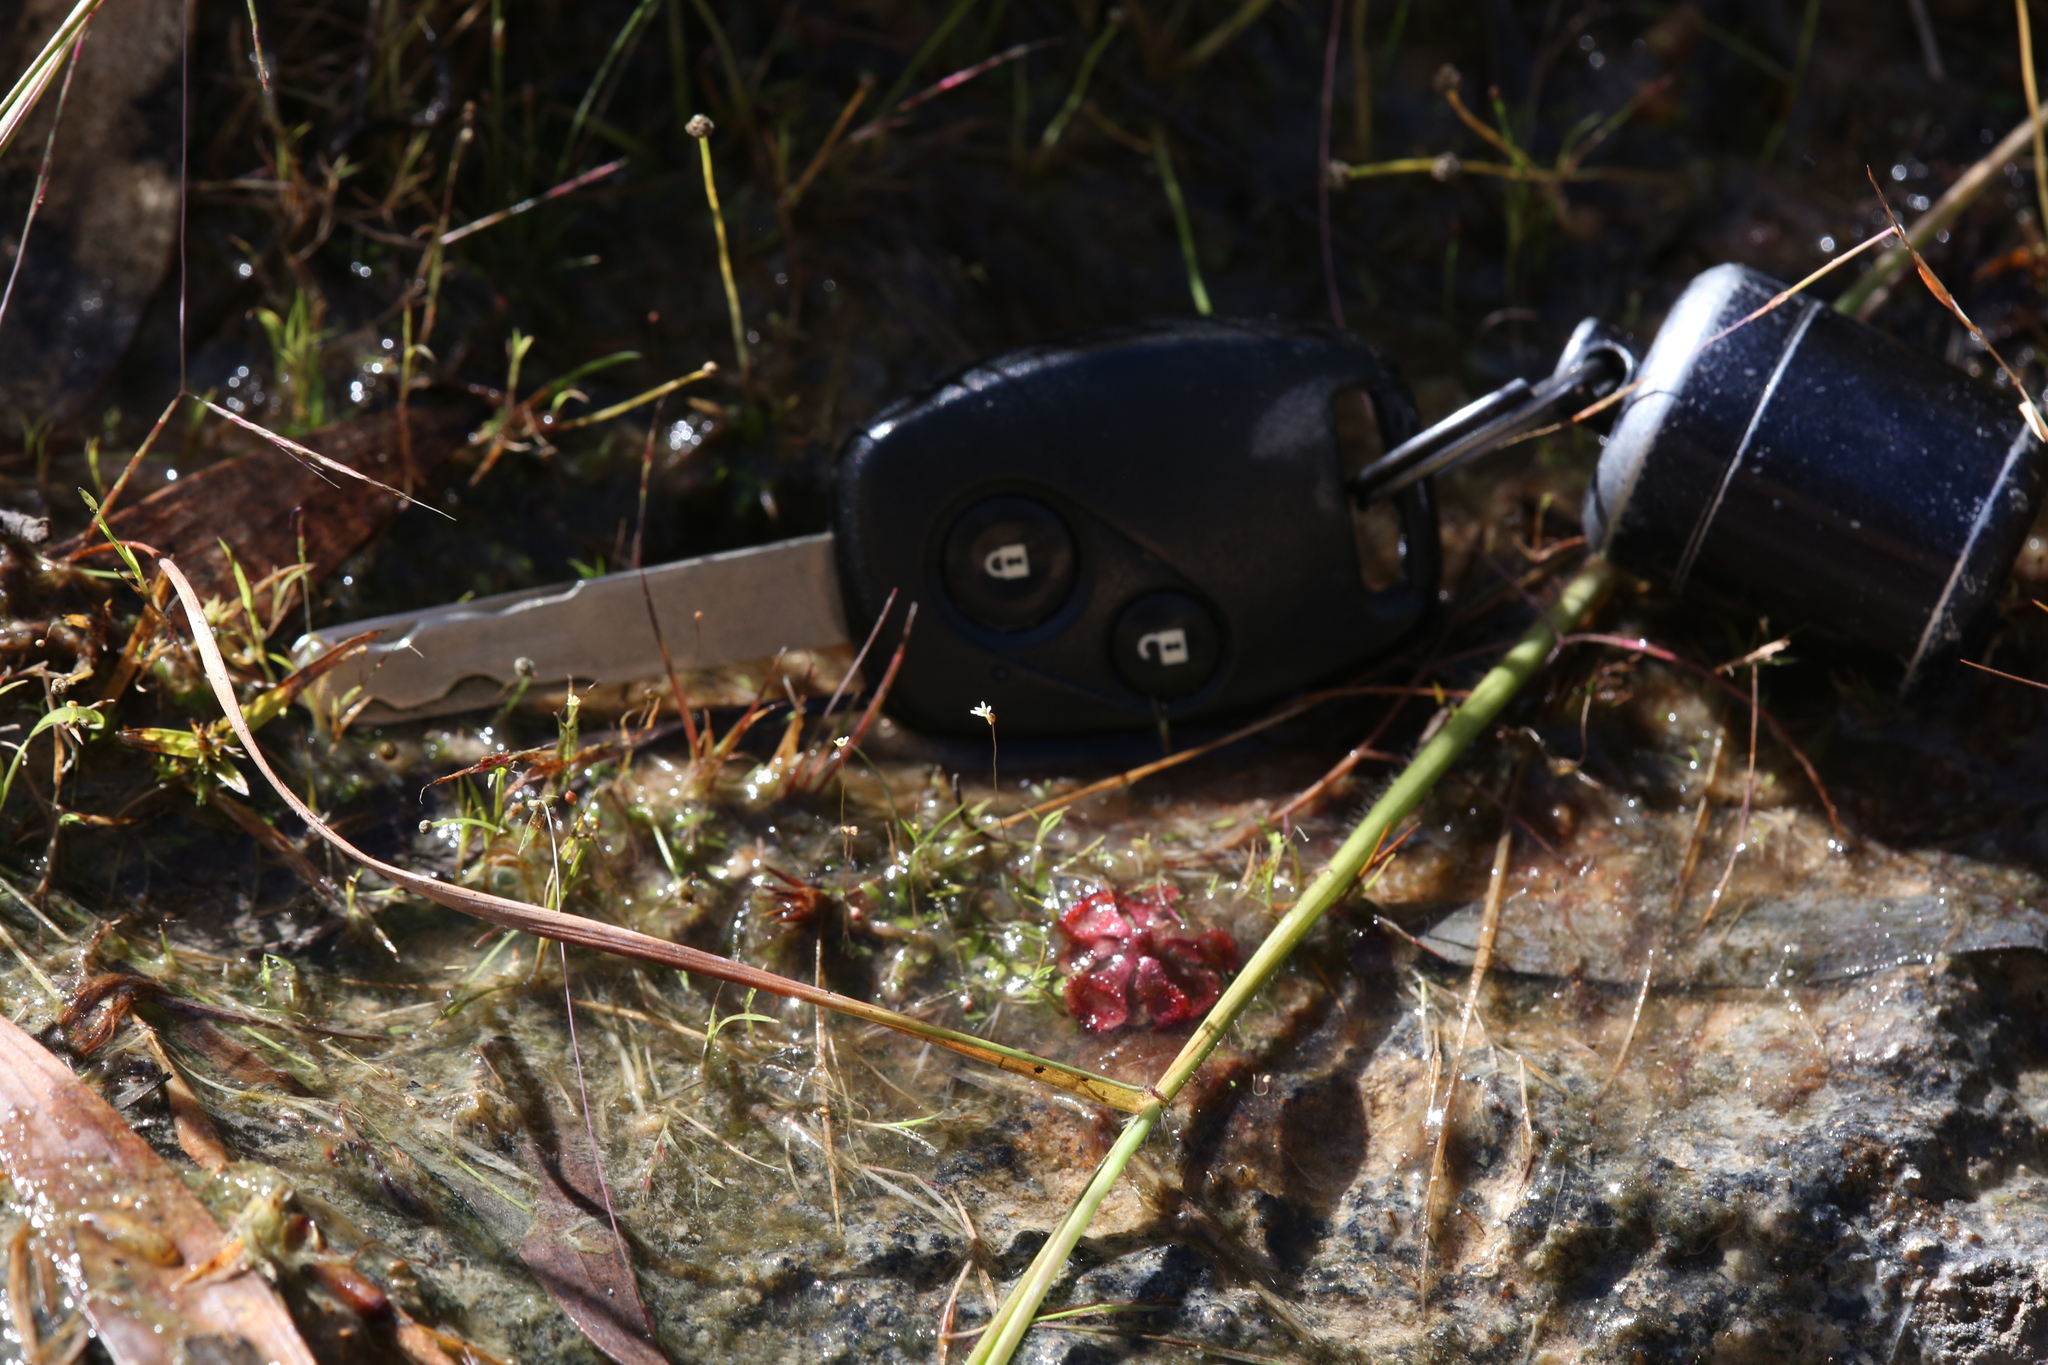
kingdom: Plantae
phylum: Tracheophyta
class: Magnoliopsida
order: Lamiales
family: Lentibulariaceae
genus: Utricularia
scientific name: Utricularia quinquedentata
